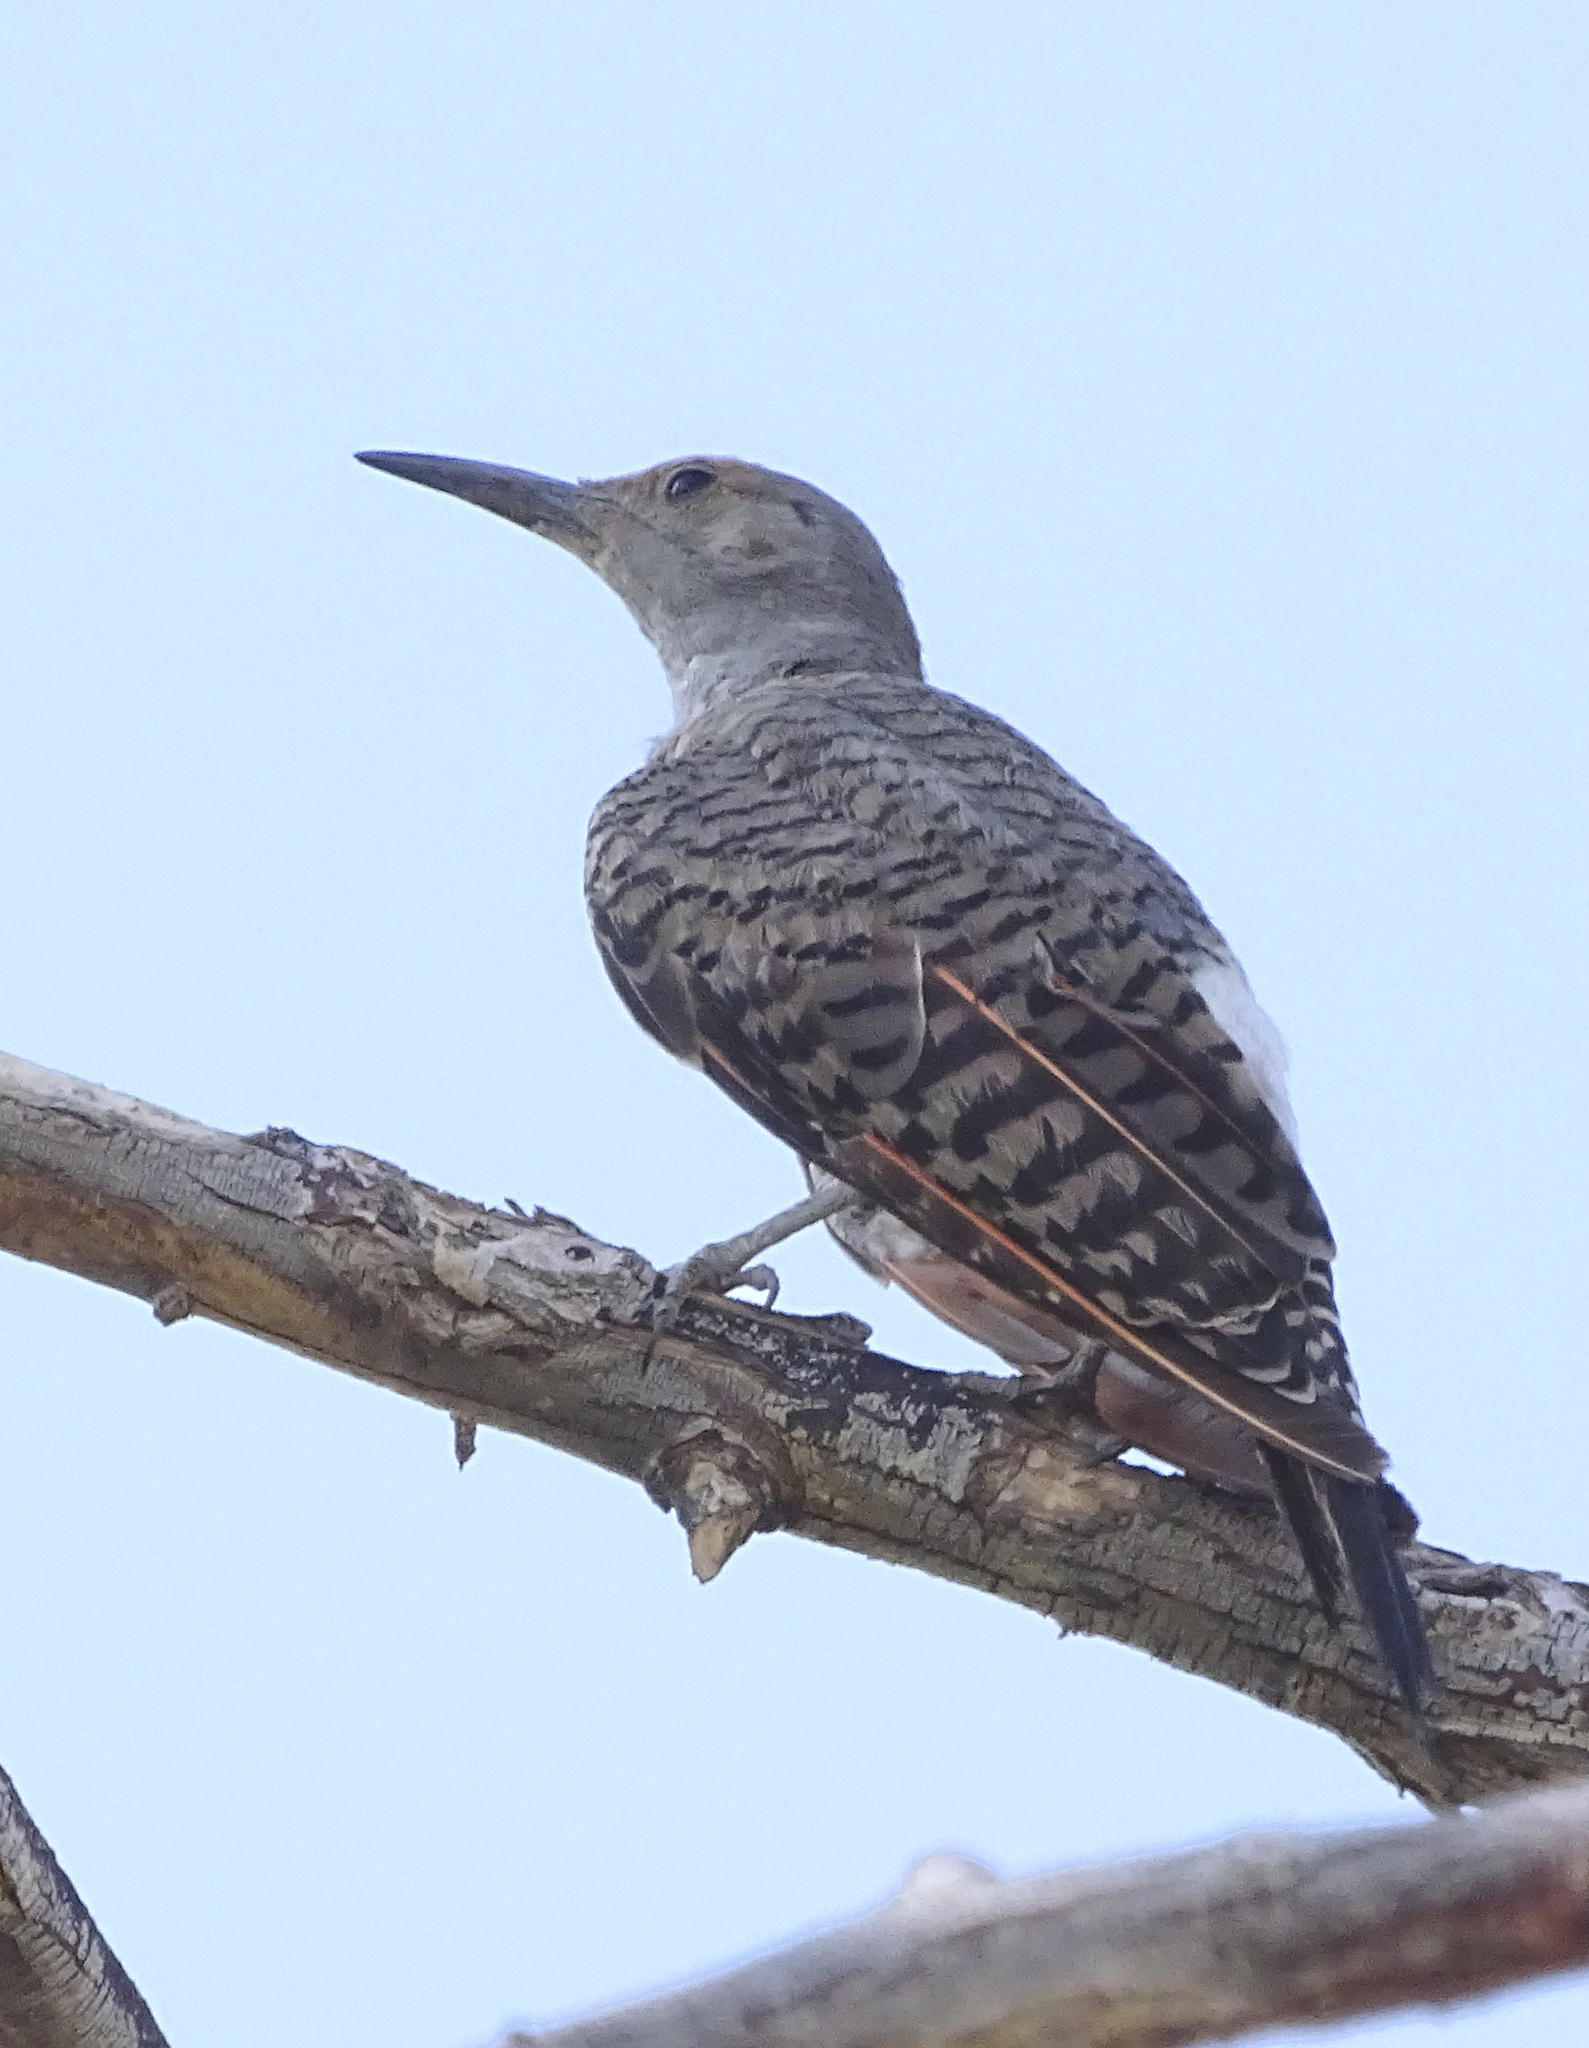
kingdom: Animalia
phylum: Chordata
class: Aves
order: Piciformes
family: Picidae
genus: Colaptes
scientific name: Colaptes auratus
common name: Northern flicker
